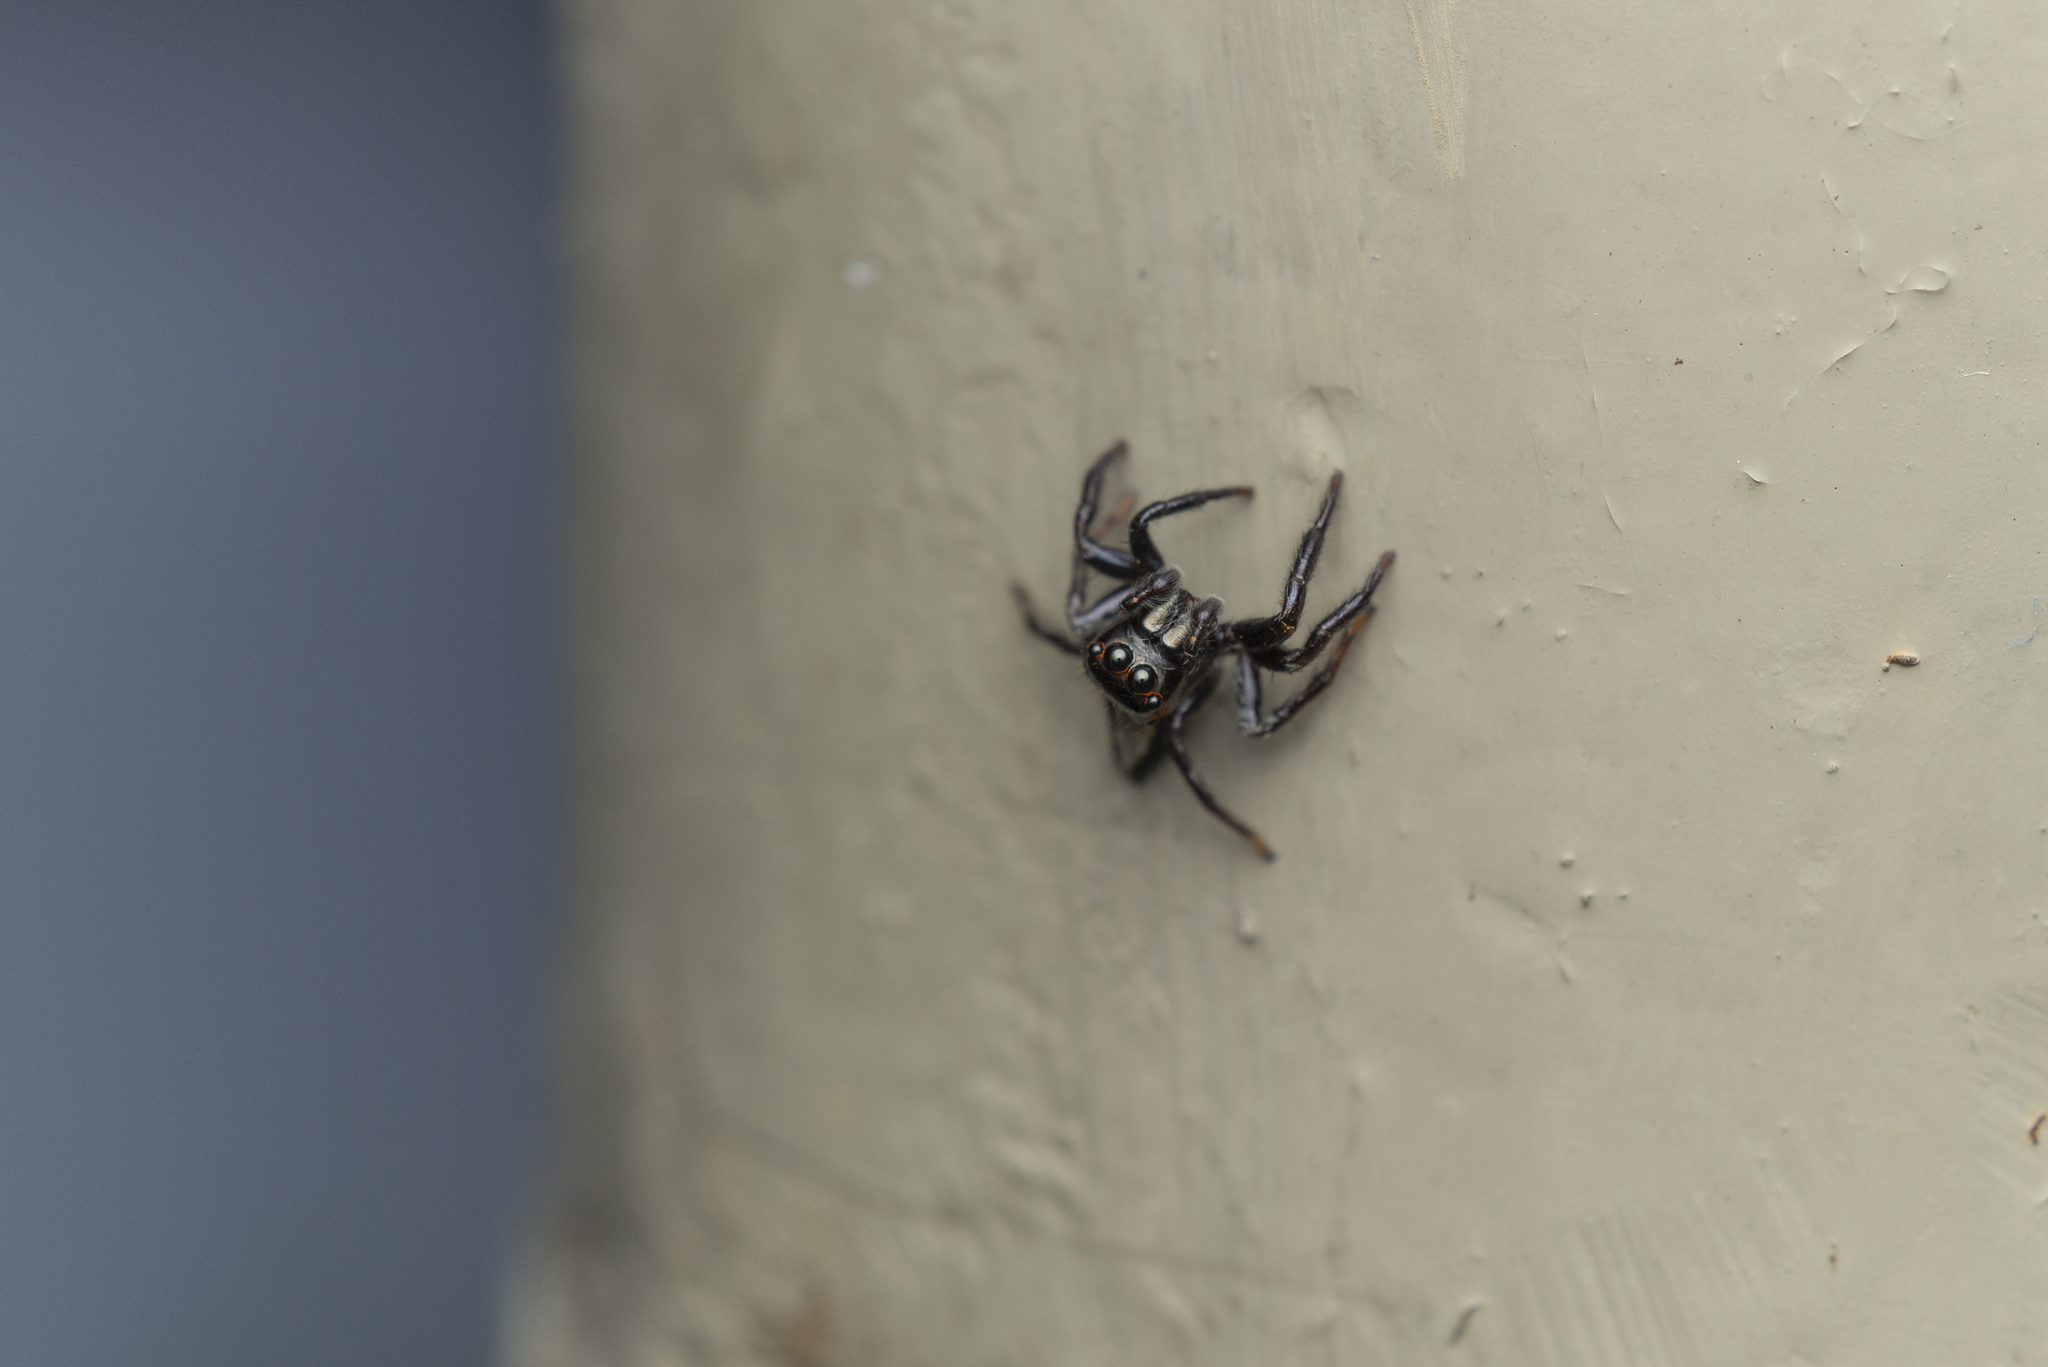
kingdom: Animalia
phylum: Arthropoda
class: Arachnida
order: Araneae
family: Salticidae
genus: Ptocasius
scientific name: Ptocasius strupifer
